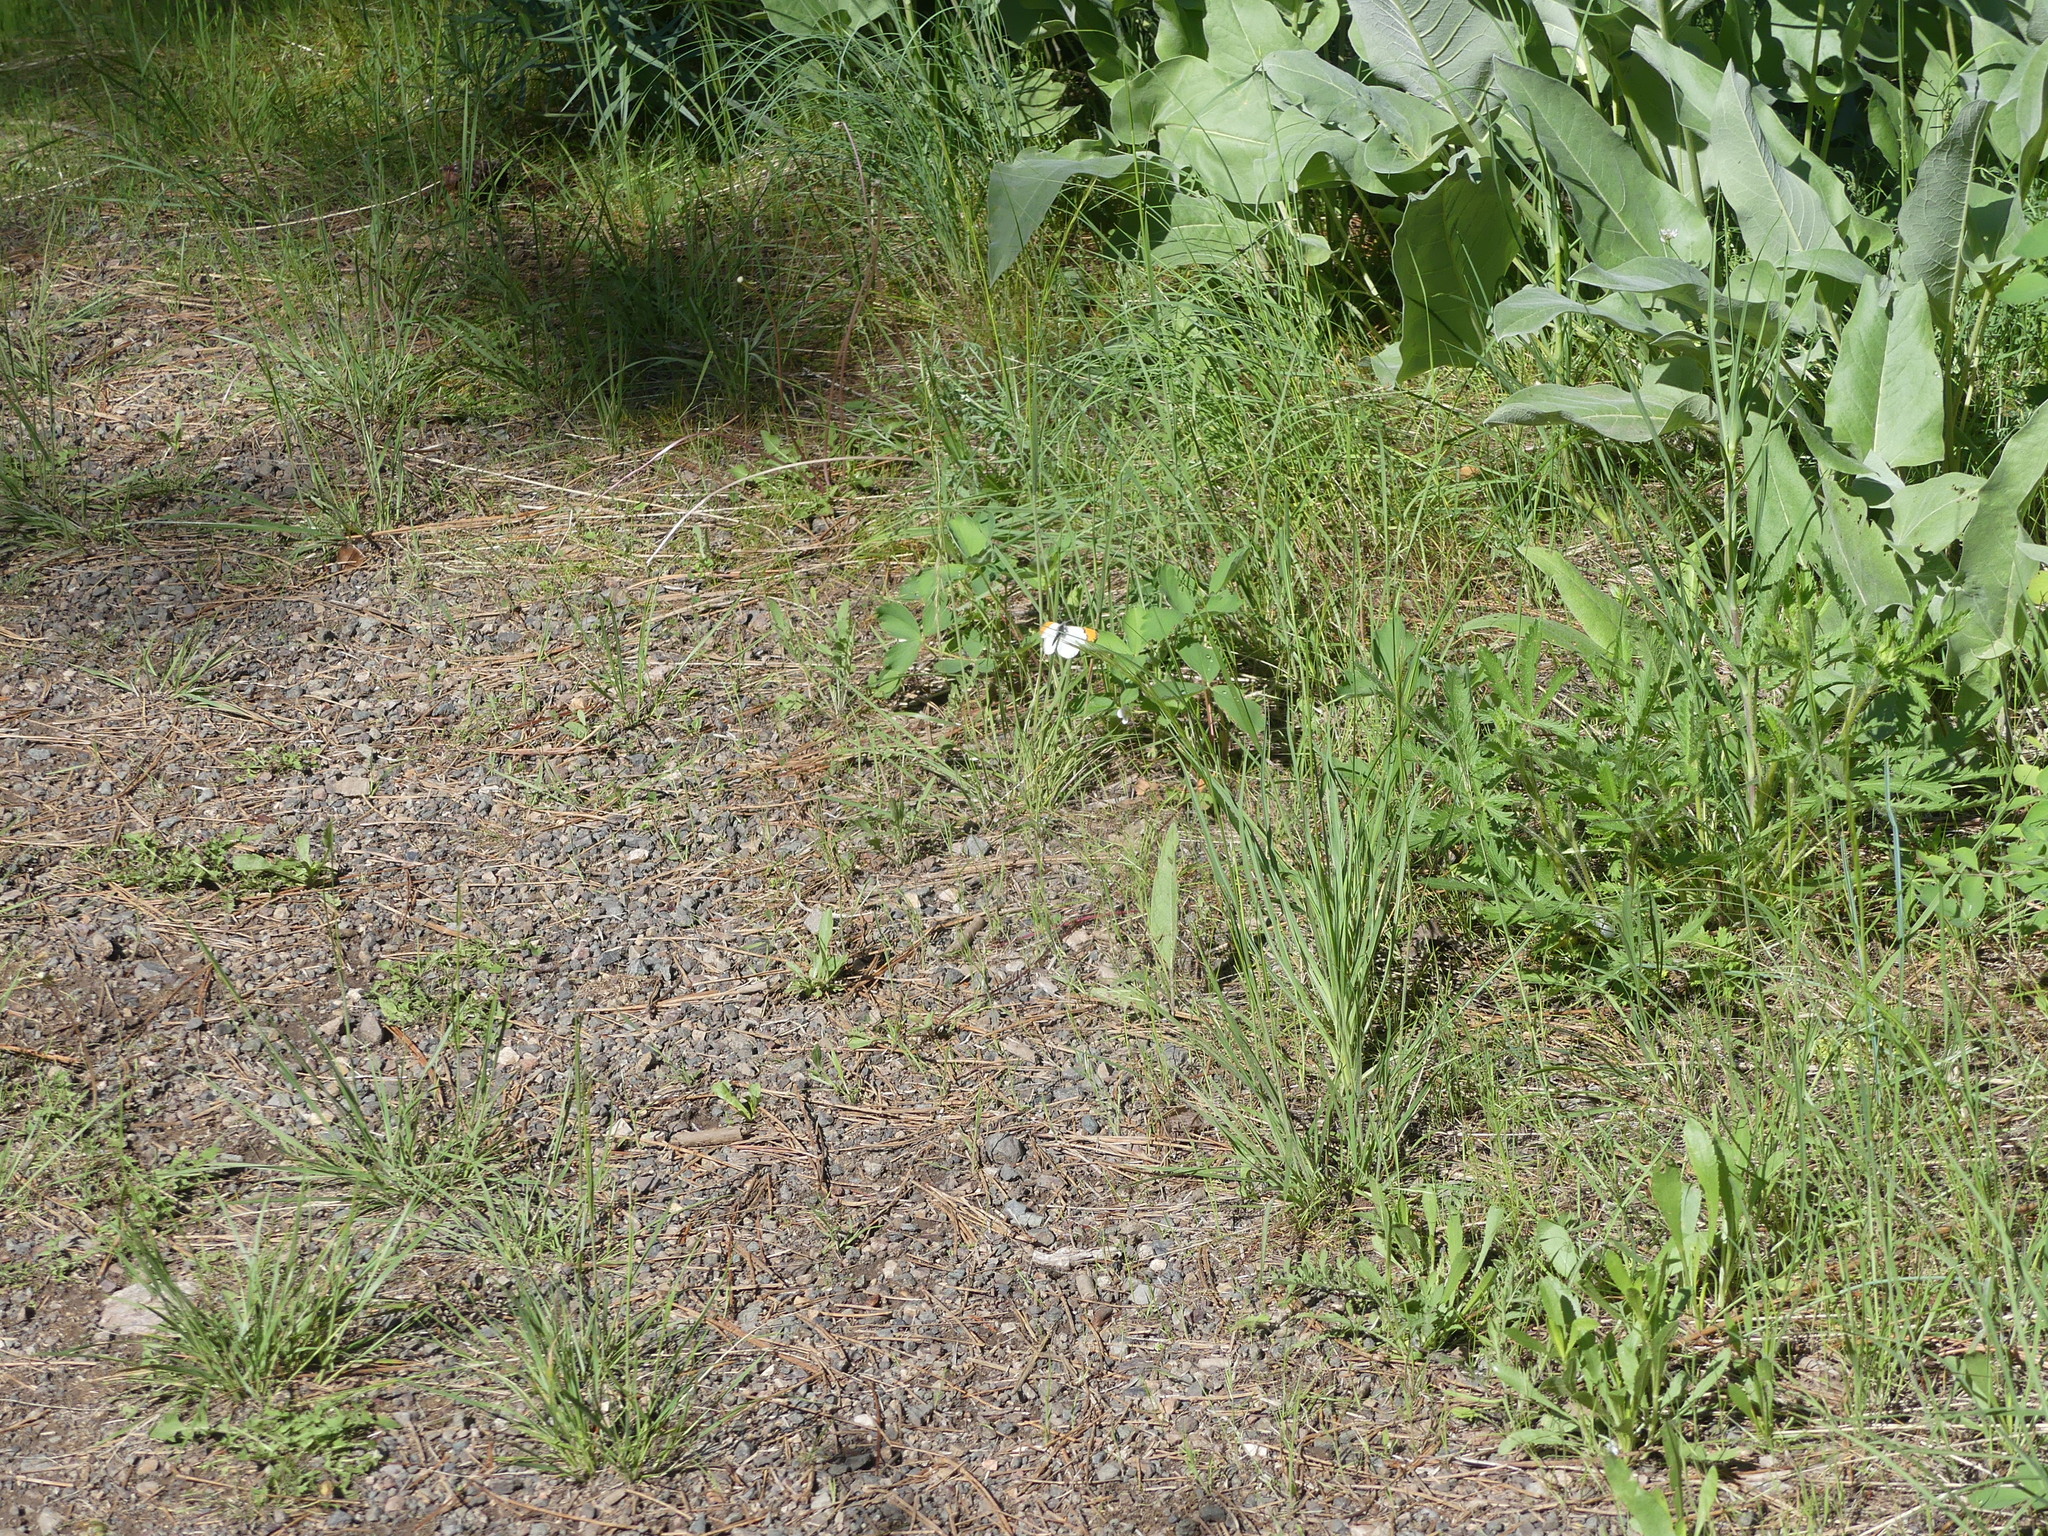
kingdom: Animalia
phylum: Arthropoda
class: Insecta
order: Lepidoptera
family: Pieridae
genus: Anthocharis
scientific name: Anthocharis julia
